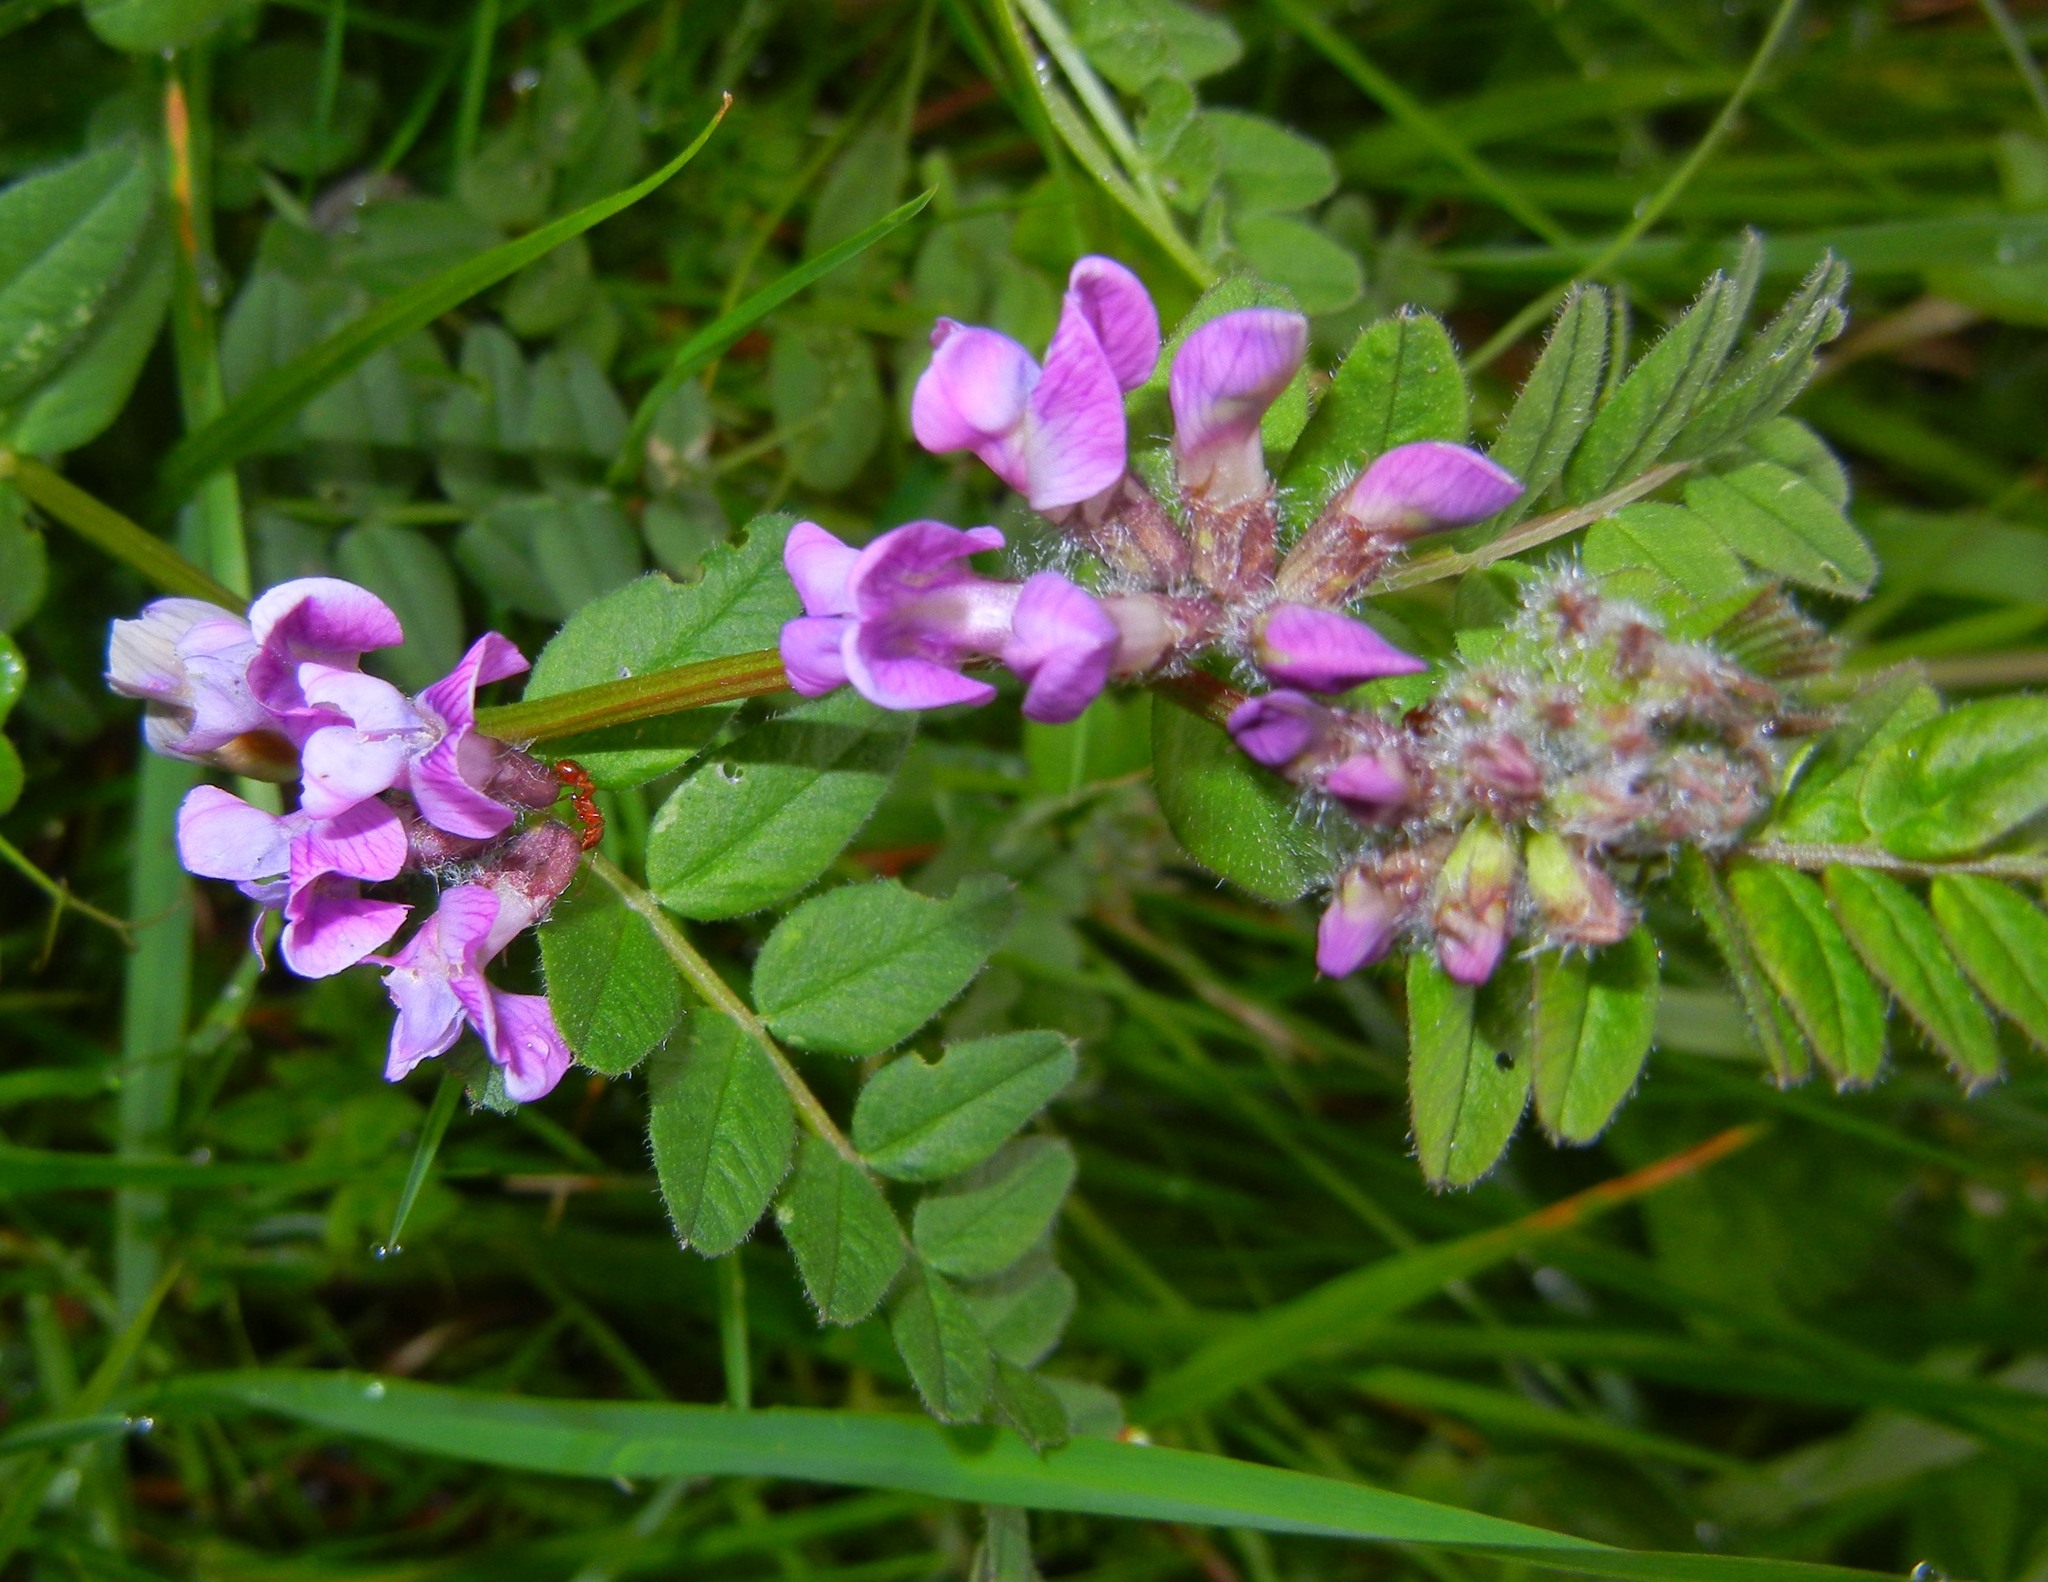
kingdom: Plantae
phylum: Tracheophyta
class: Magnoliopsida
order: Fabales
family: Fabaceae
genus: Vicia
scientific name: Vicia sepium
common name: Bush vetch
